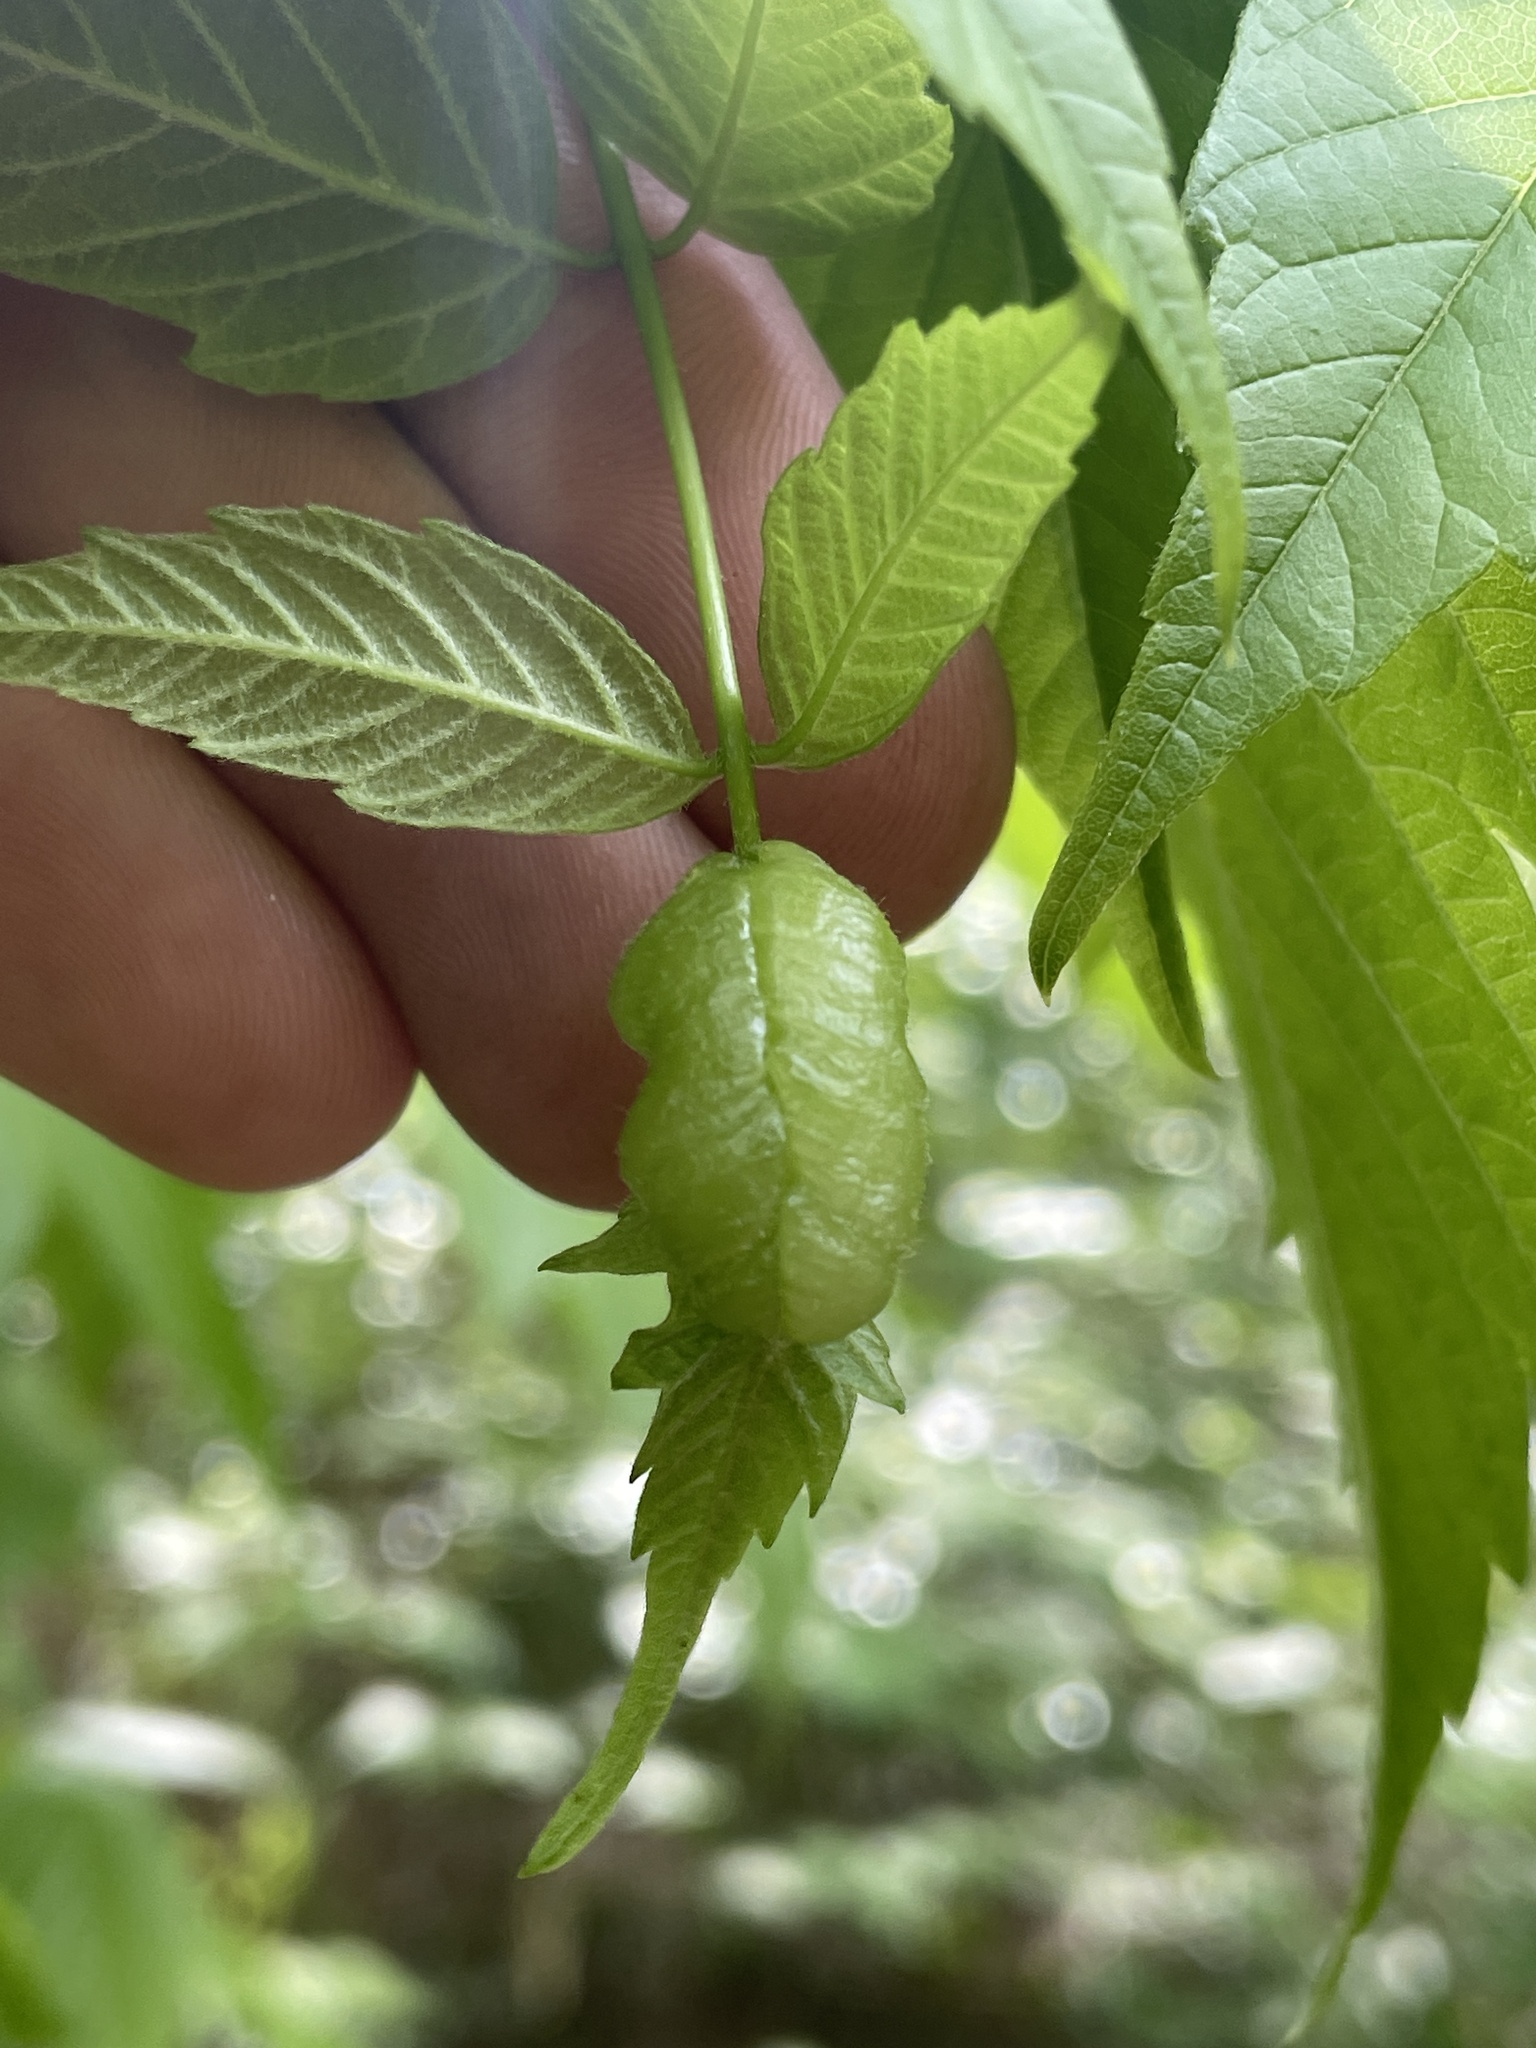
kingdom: Animalia
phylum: Arthropoda
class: Insecta
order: Diptera
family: Cecidomyiidae
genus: Contarinia
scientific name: Contarinia negundinis
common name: Boxelder budgall midge
